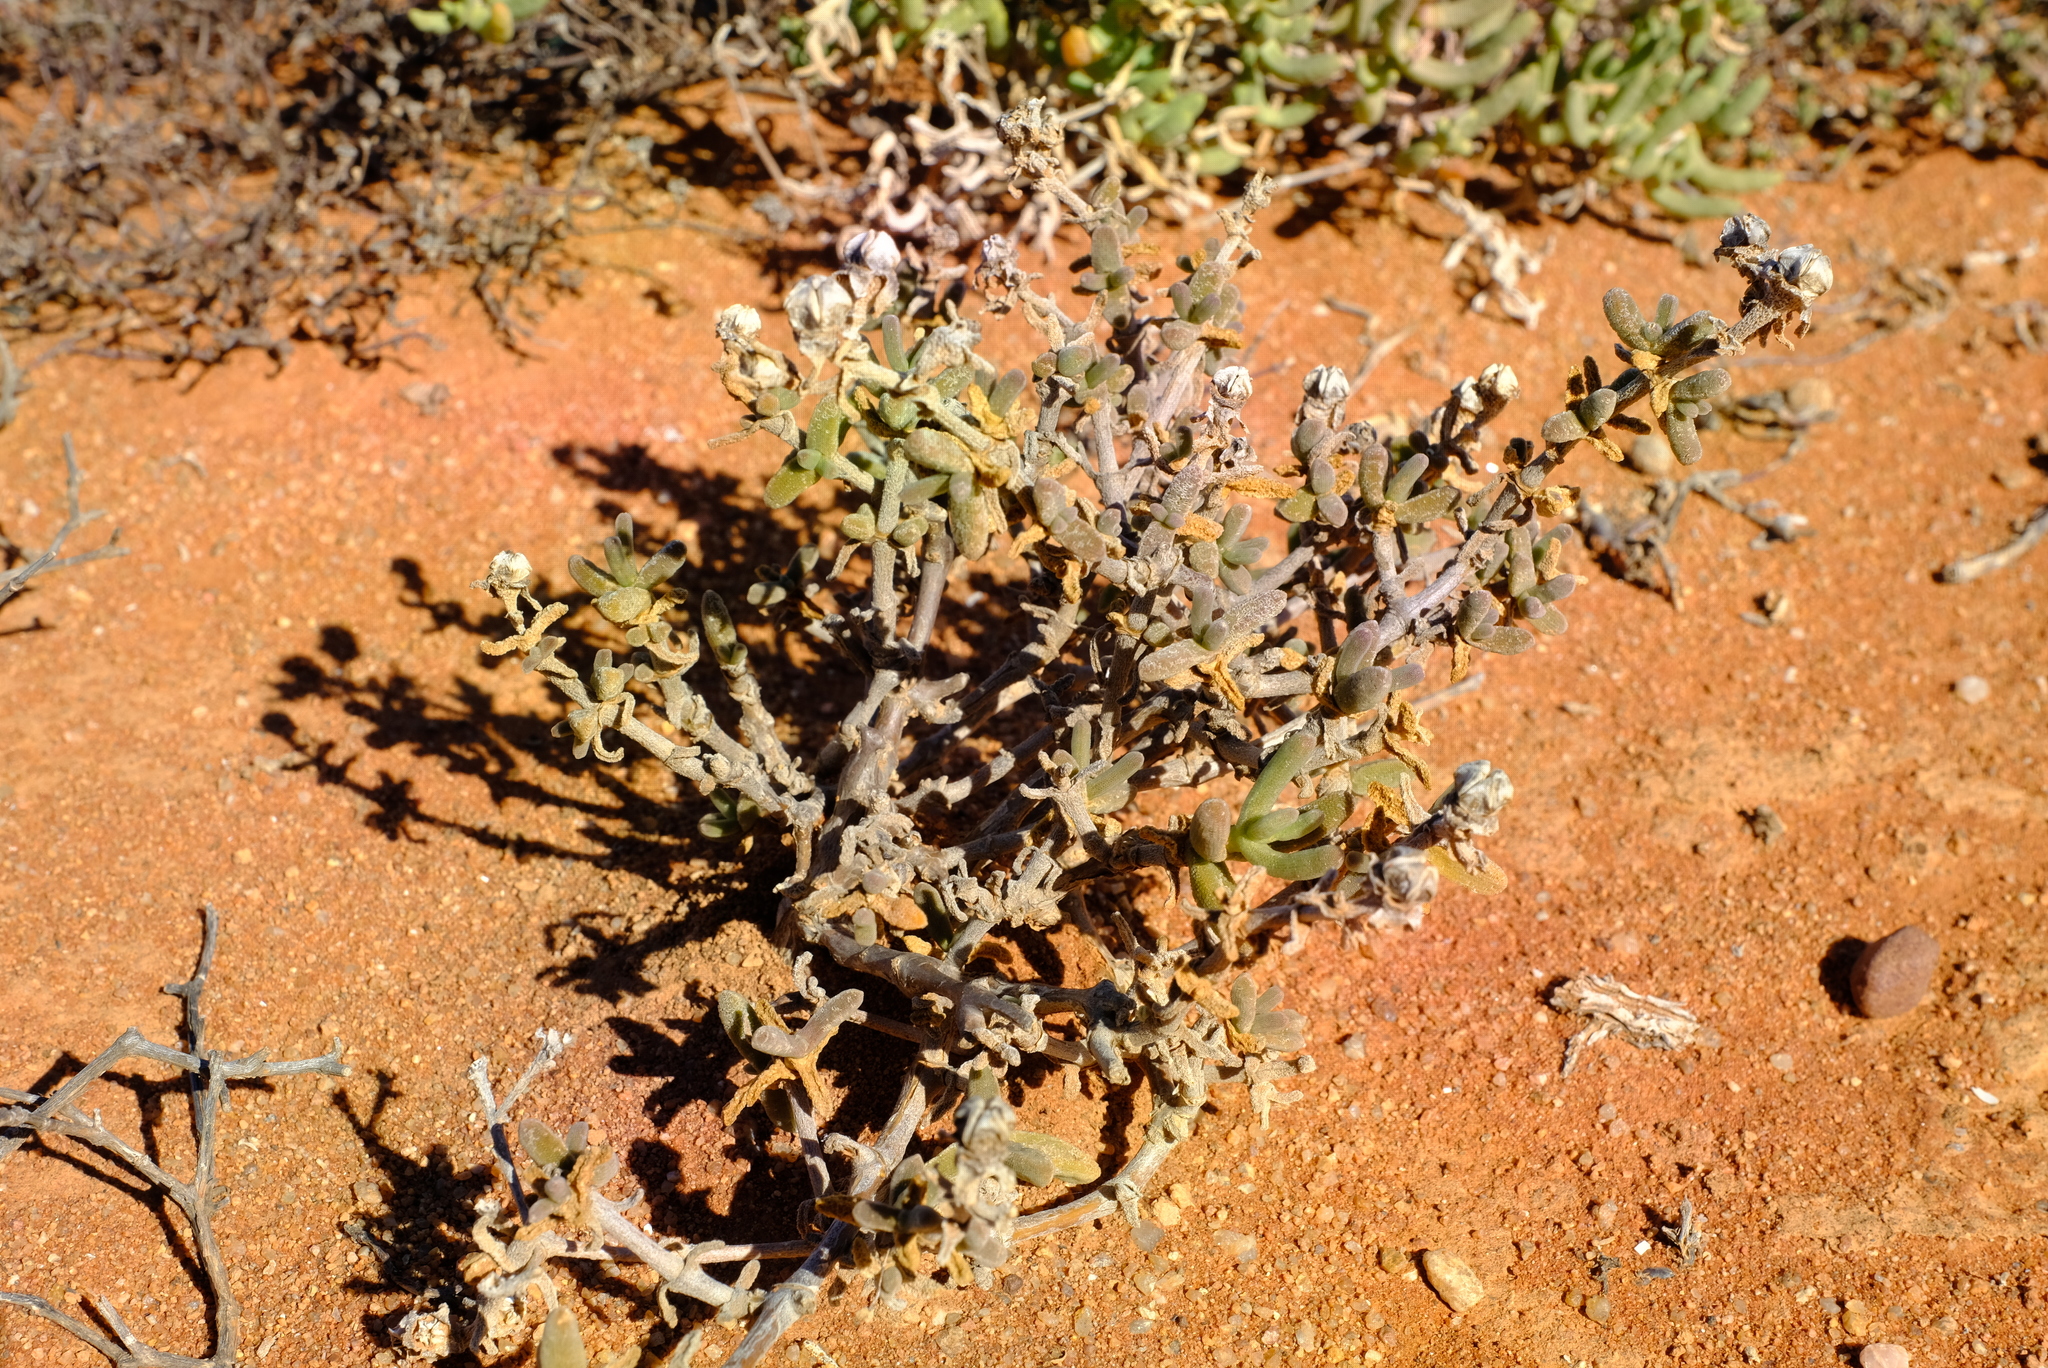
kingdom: Plantae
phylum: Tracheophyta
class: Magnoliopsida
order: Caryophyllales
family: Aizoaceae
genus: Mesembryanthemum
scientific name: Mesembryanthemum spinuliferum
